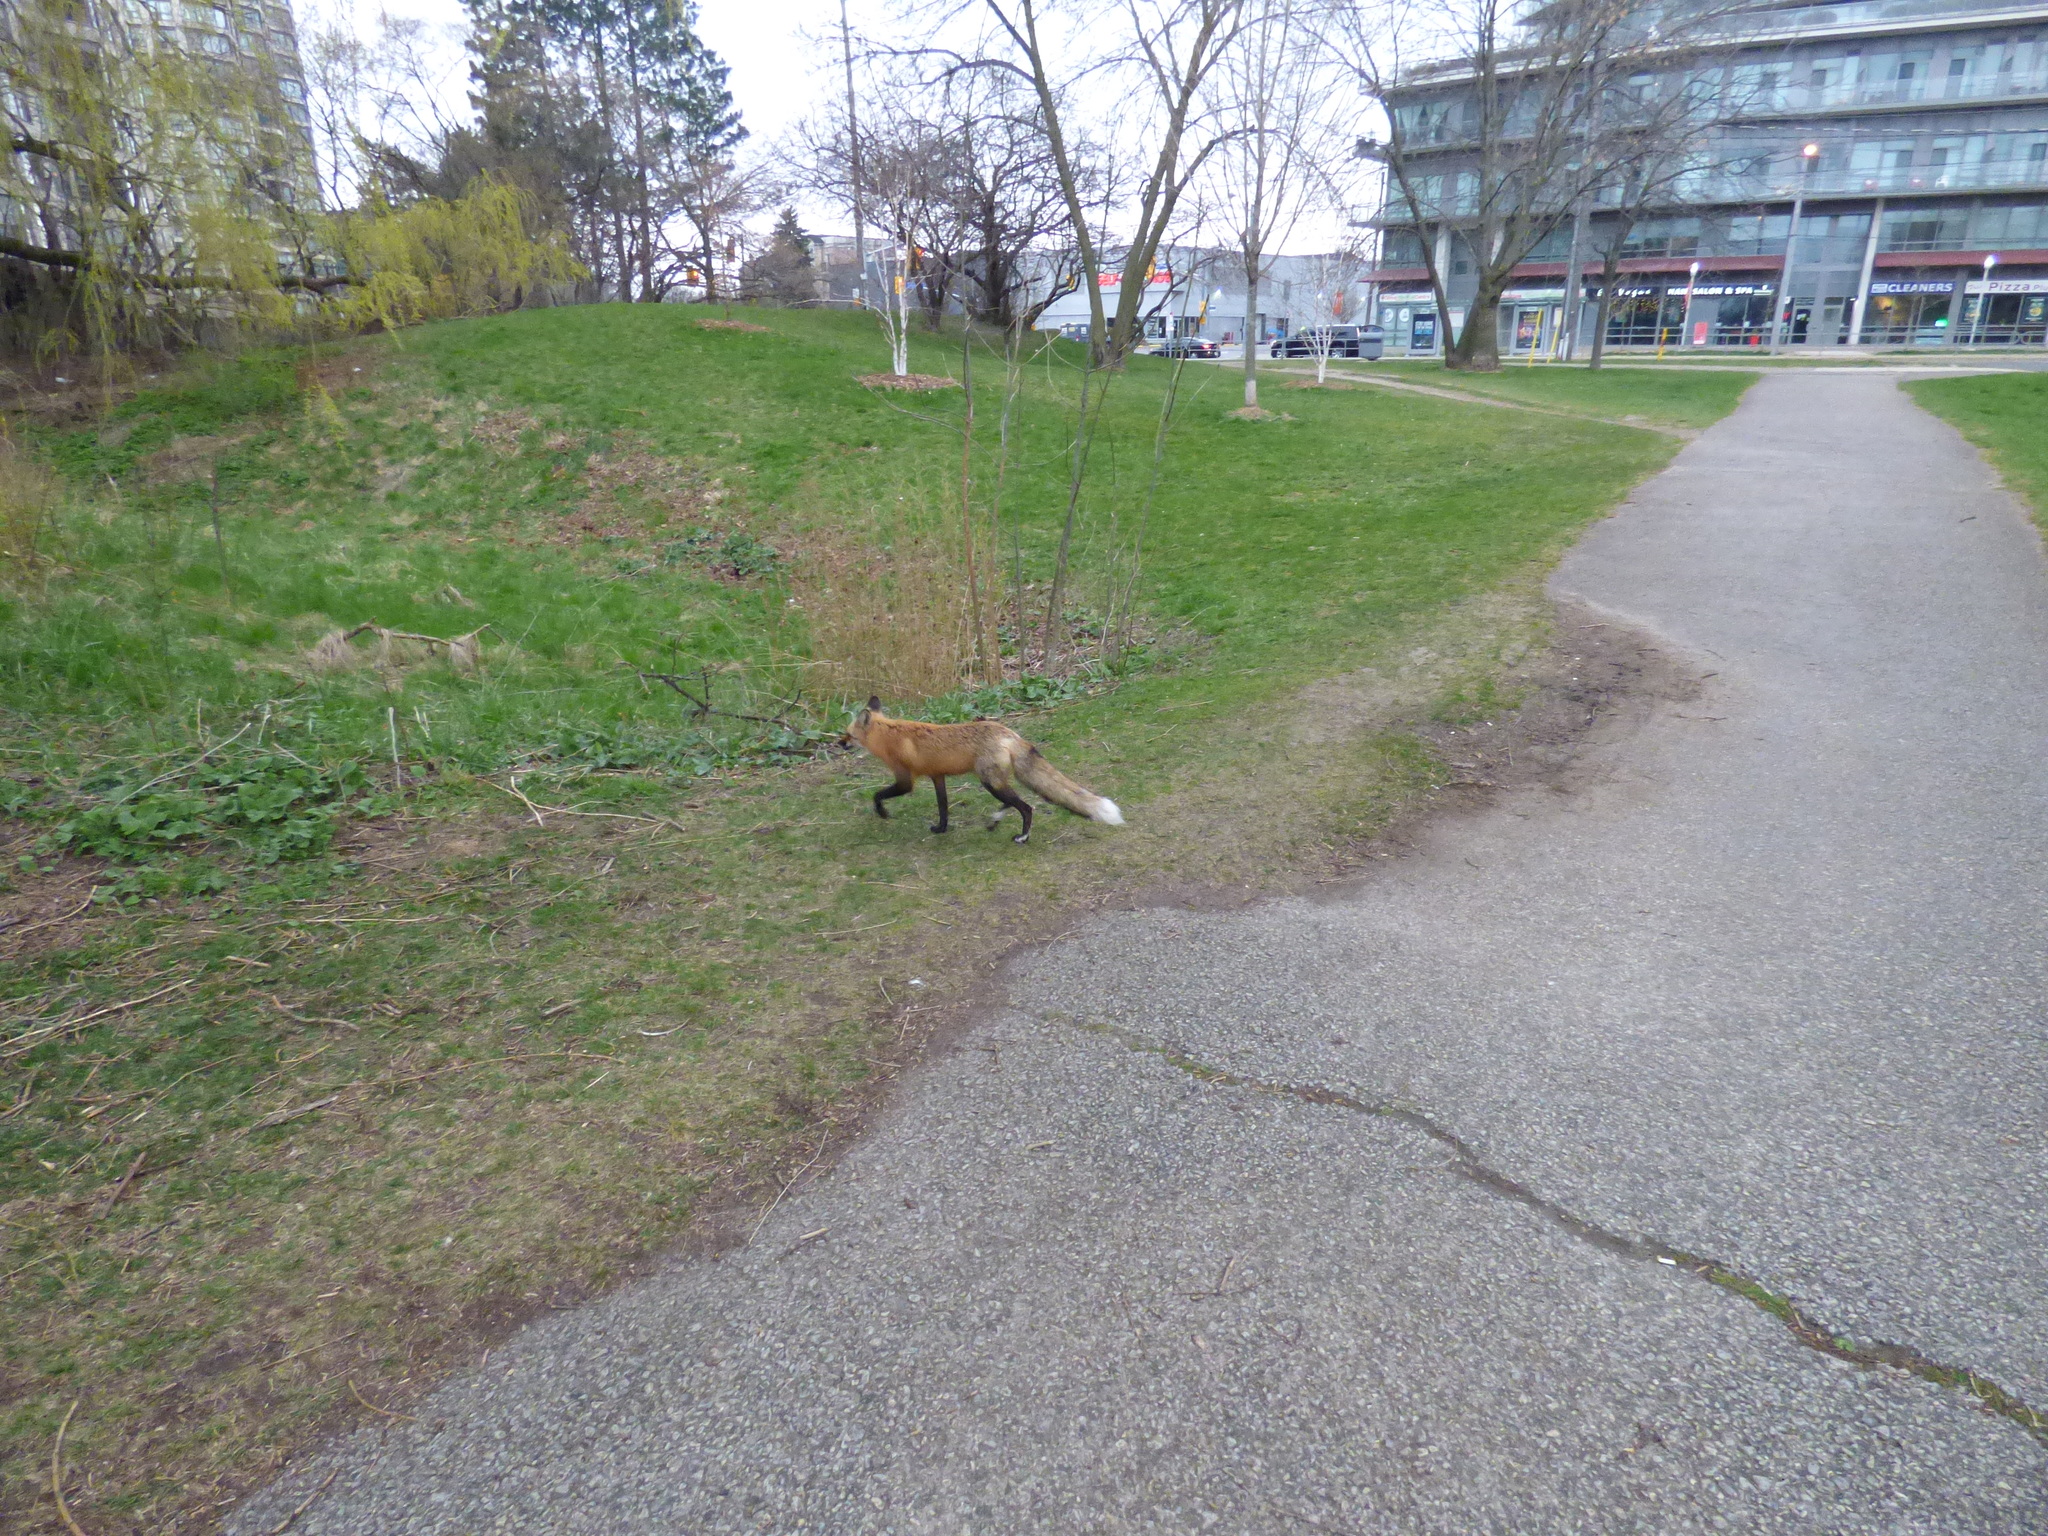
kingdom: Animalia
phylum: Chordata
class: Mammalia
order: Carnivora
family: Canidae
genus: Vulpes
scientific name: Vulpes vulpes
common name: Red fox
